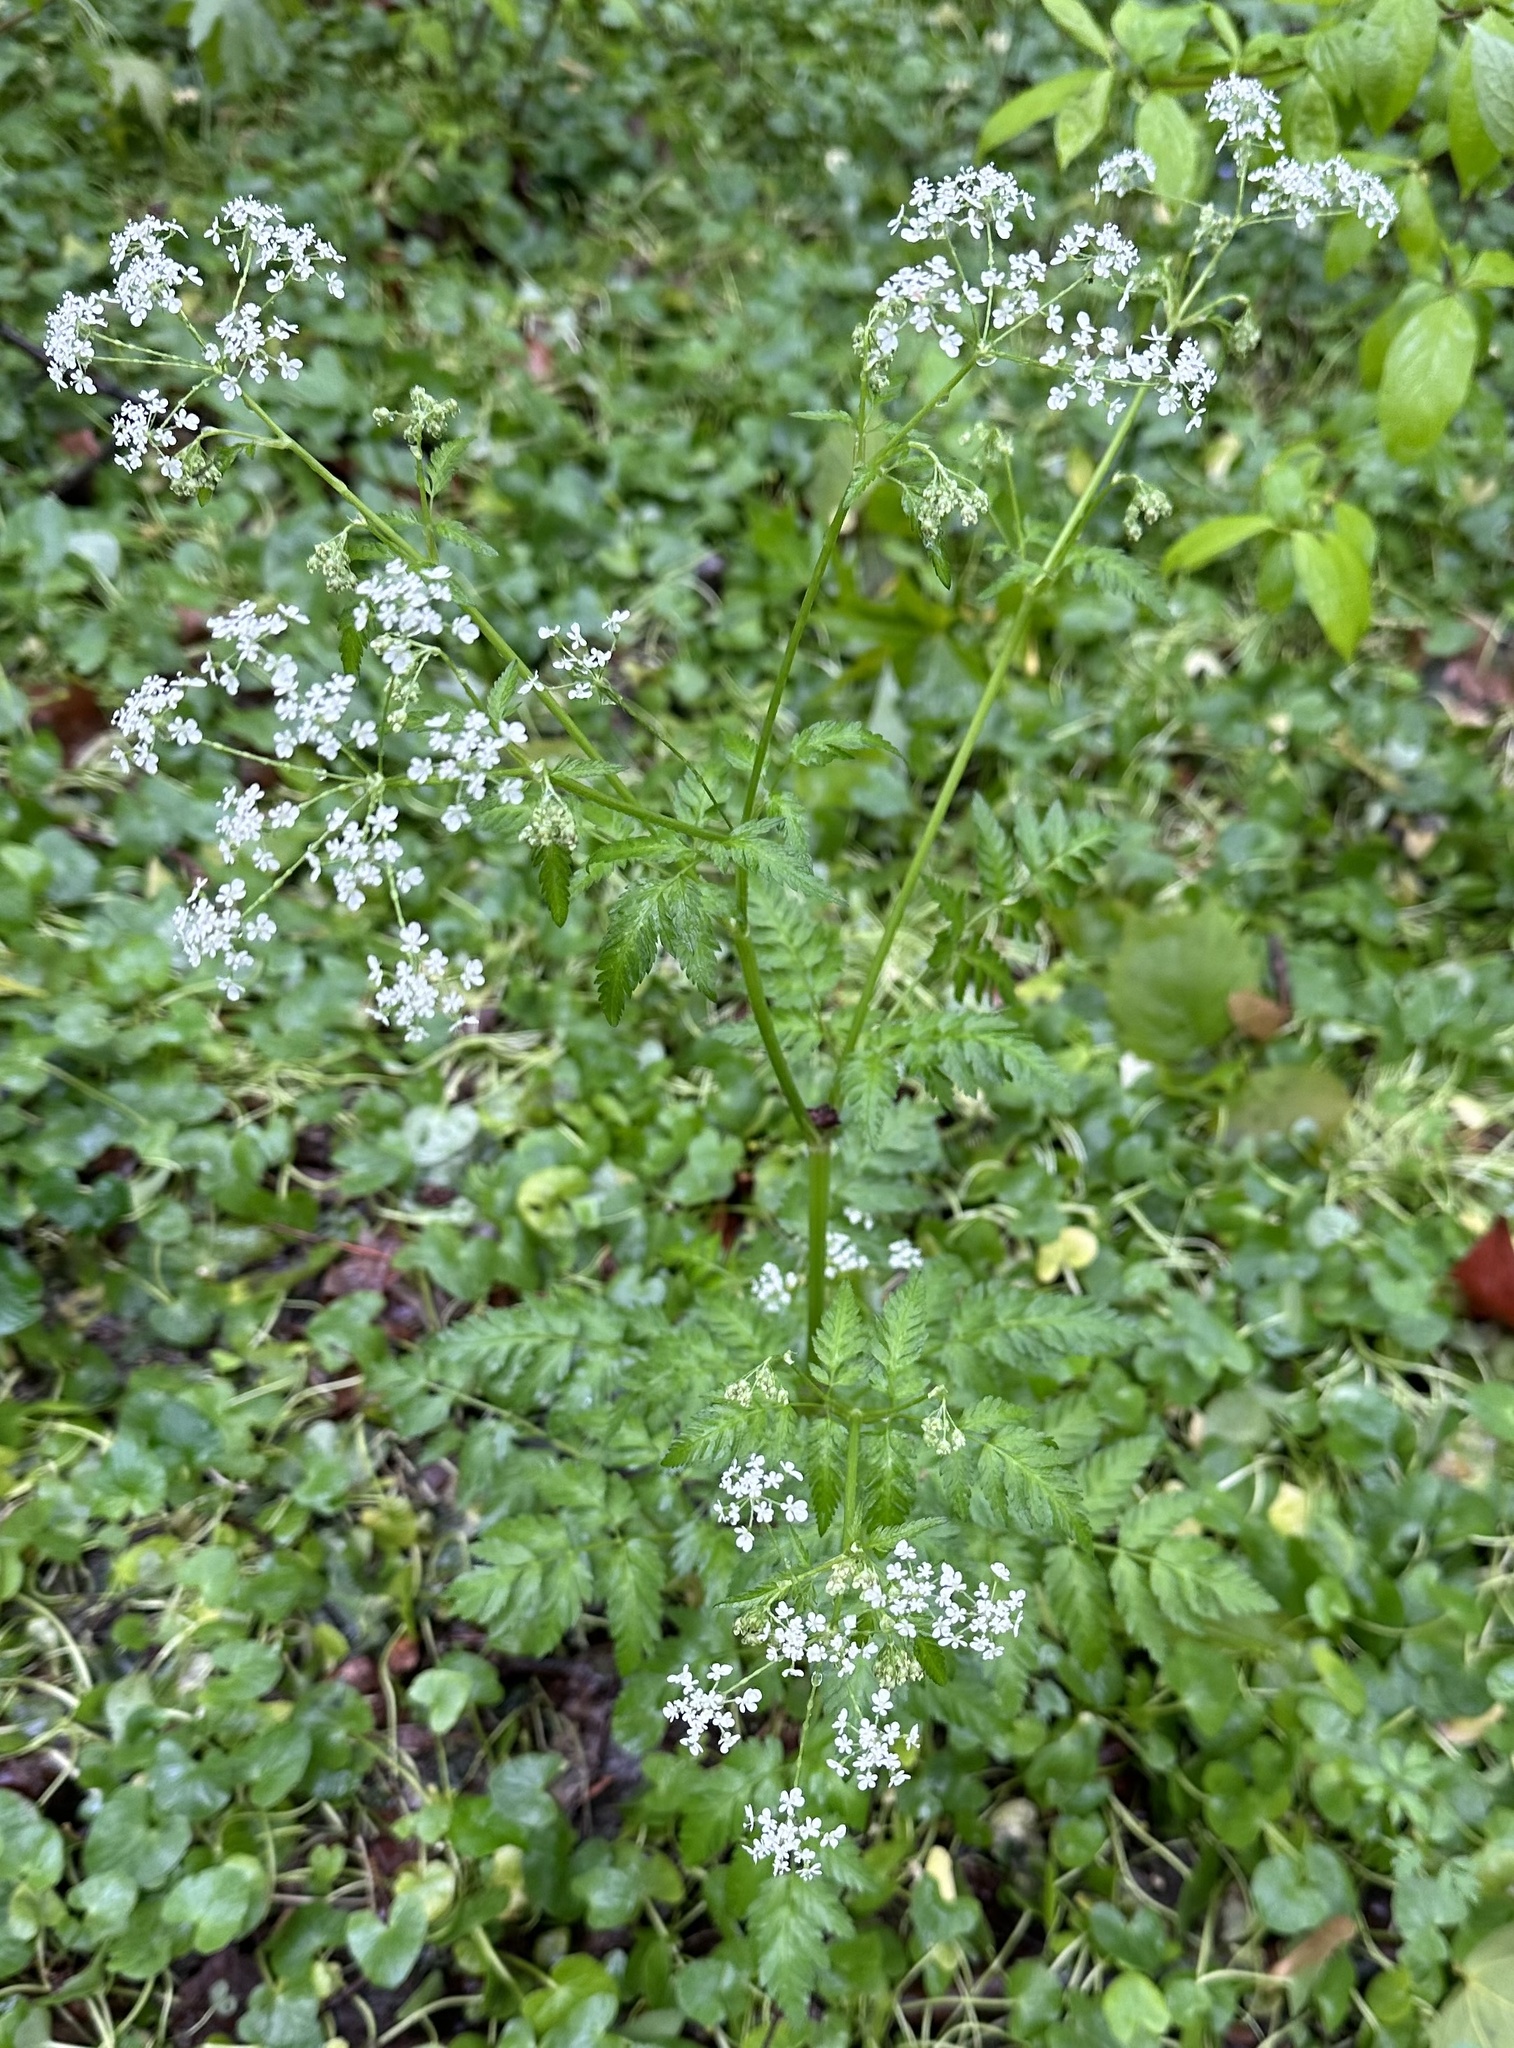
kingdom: Plantae
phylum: Tracheophyta
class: Magnoliopsida
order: Apiales
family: Apiaceae
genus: Anthriscus
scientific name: Anthriscus sylvestris
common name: Cow parsley
